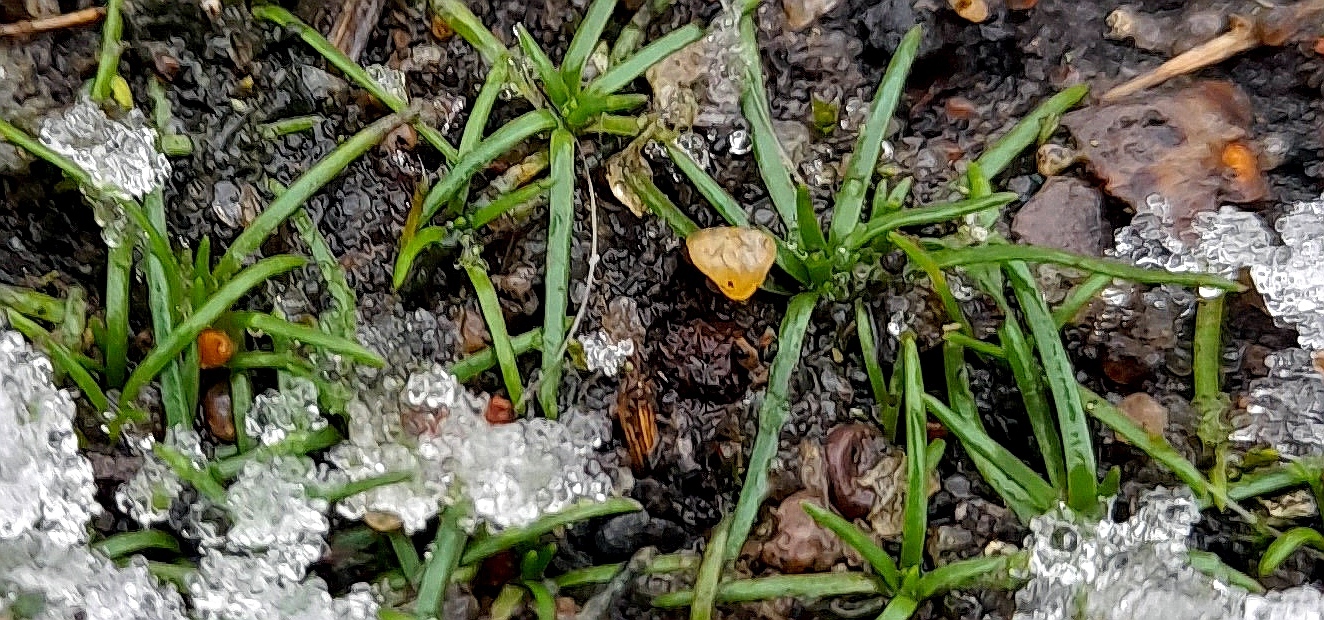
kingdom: Plantae
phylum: Tracheophyta
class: Magnoliopsida
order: Caryophyllales
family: Caryophyllaceae
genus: Sagina
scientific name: Sagina procumbens
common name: Procumbent pearlwort
